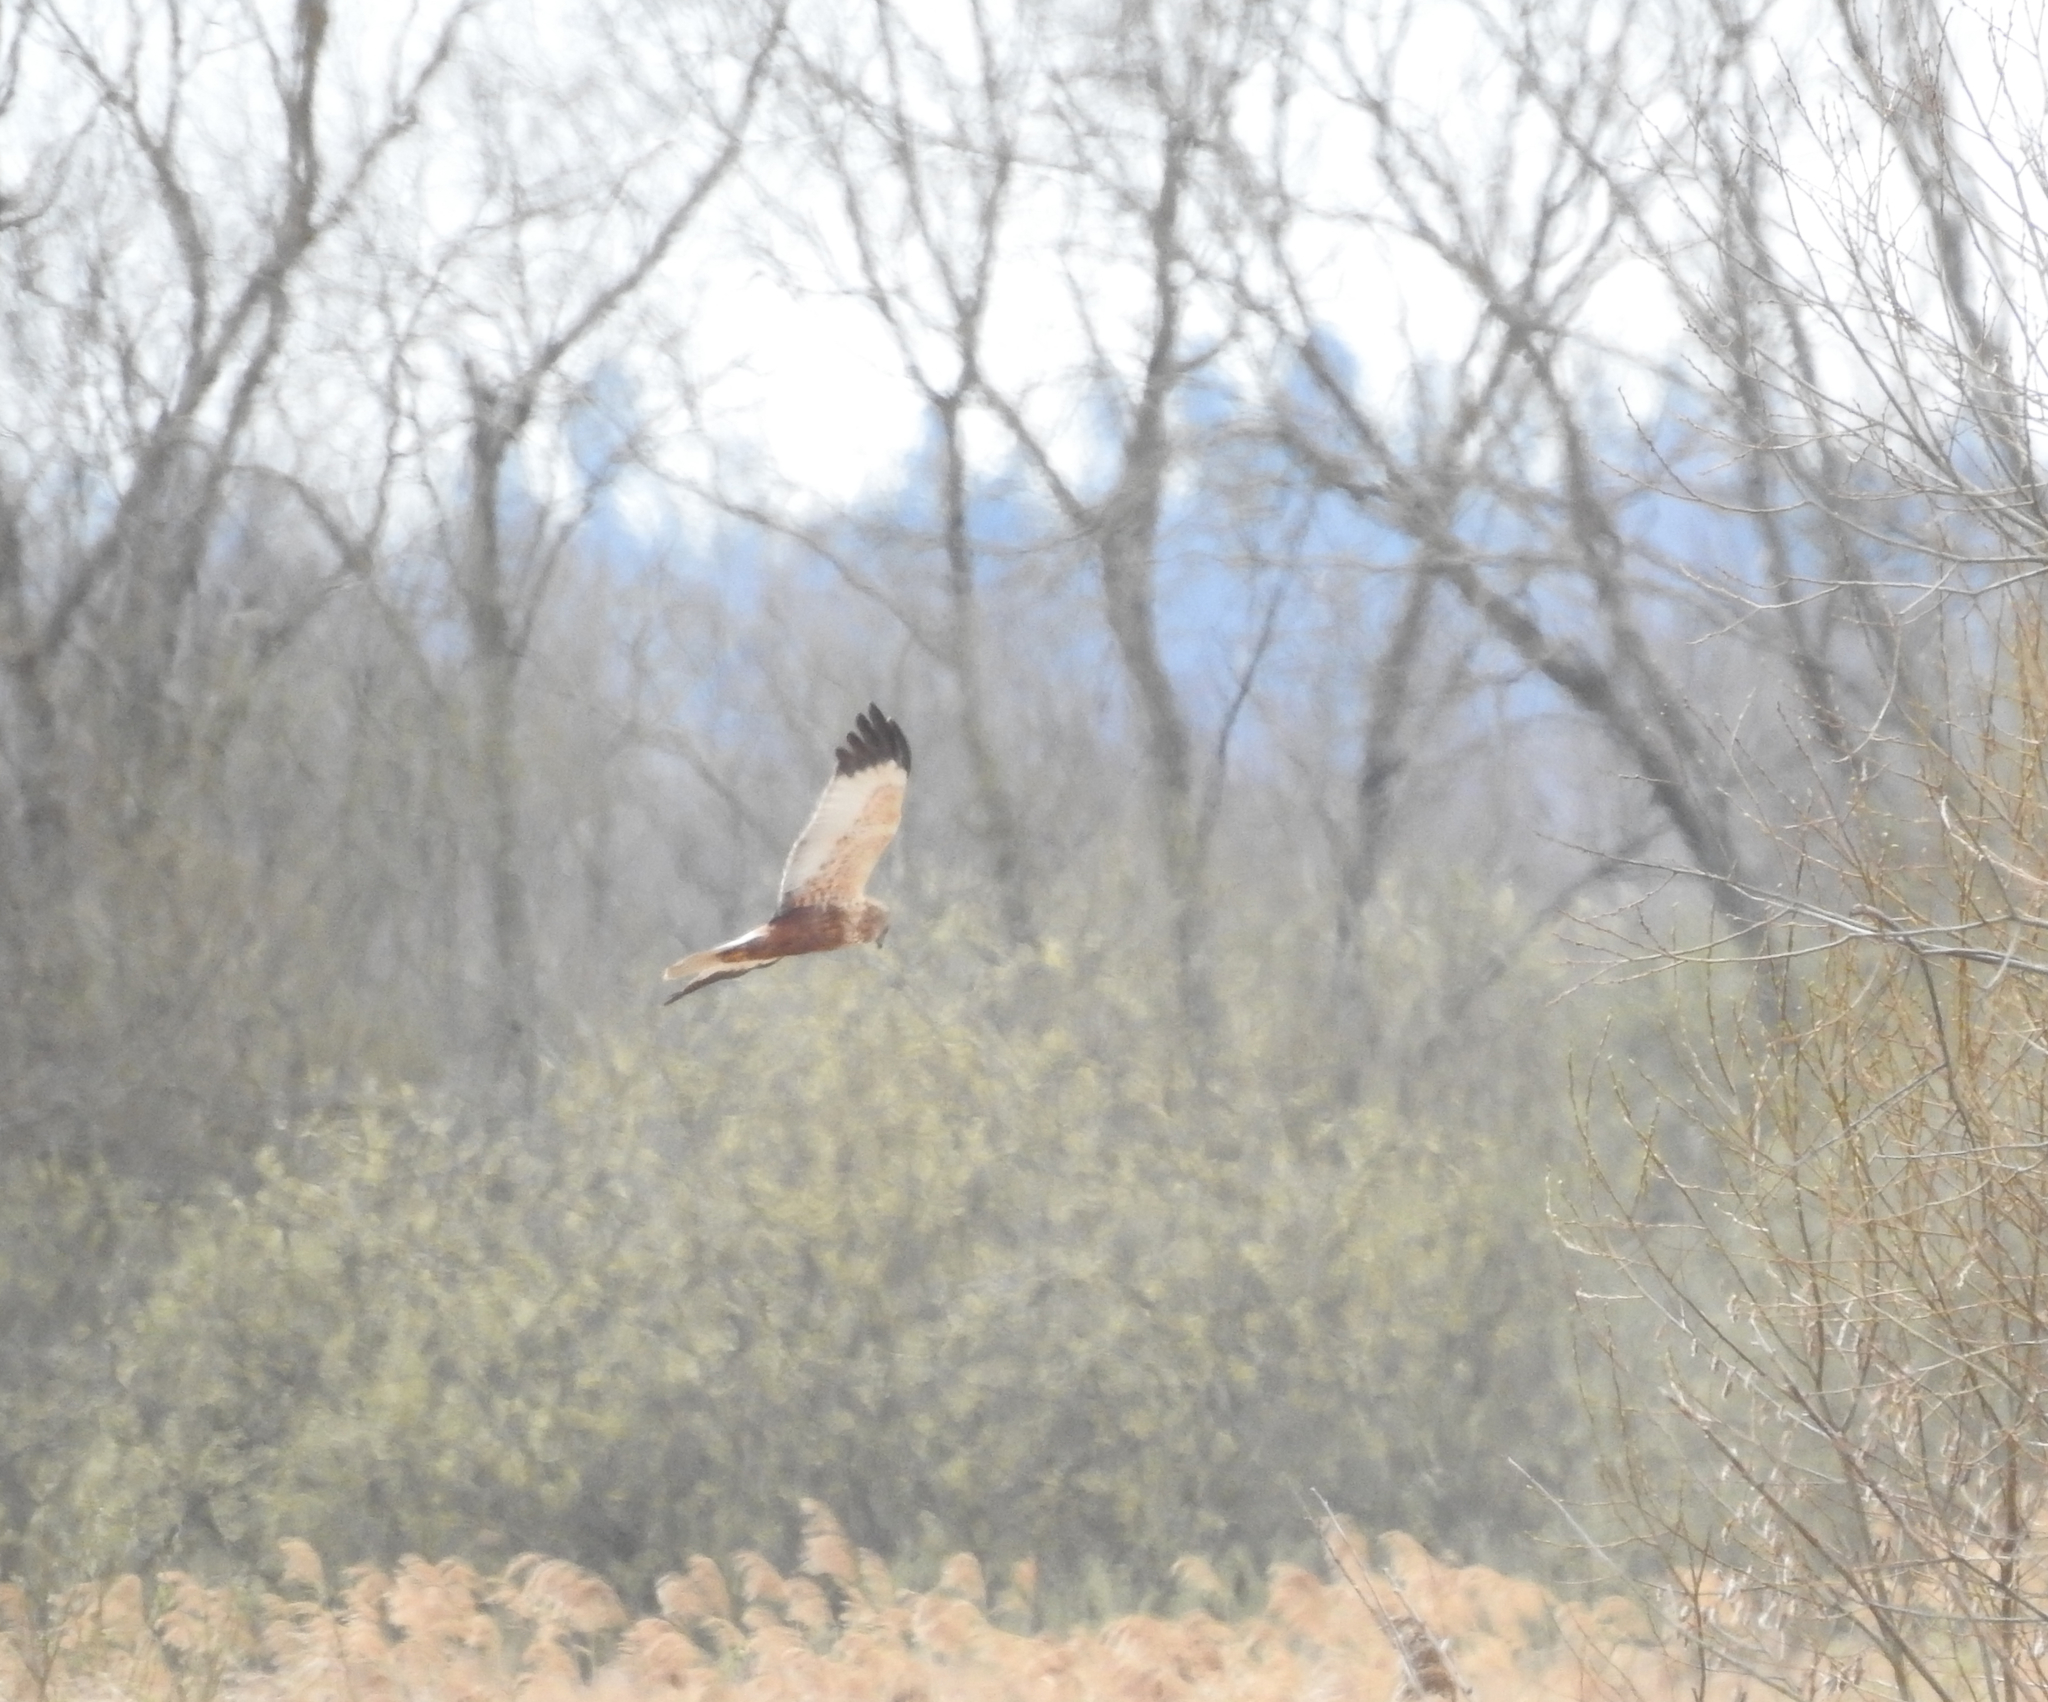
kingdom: Animalia
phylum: Chordata
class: Aves
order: Accipitriformes
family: Accipitridae
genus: Circus
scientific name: Circus aeruginosus
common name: Western marsh harrier
